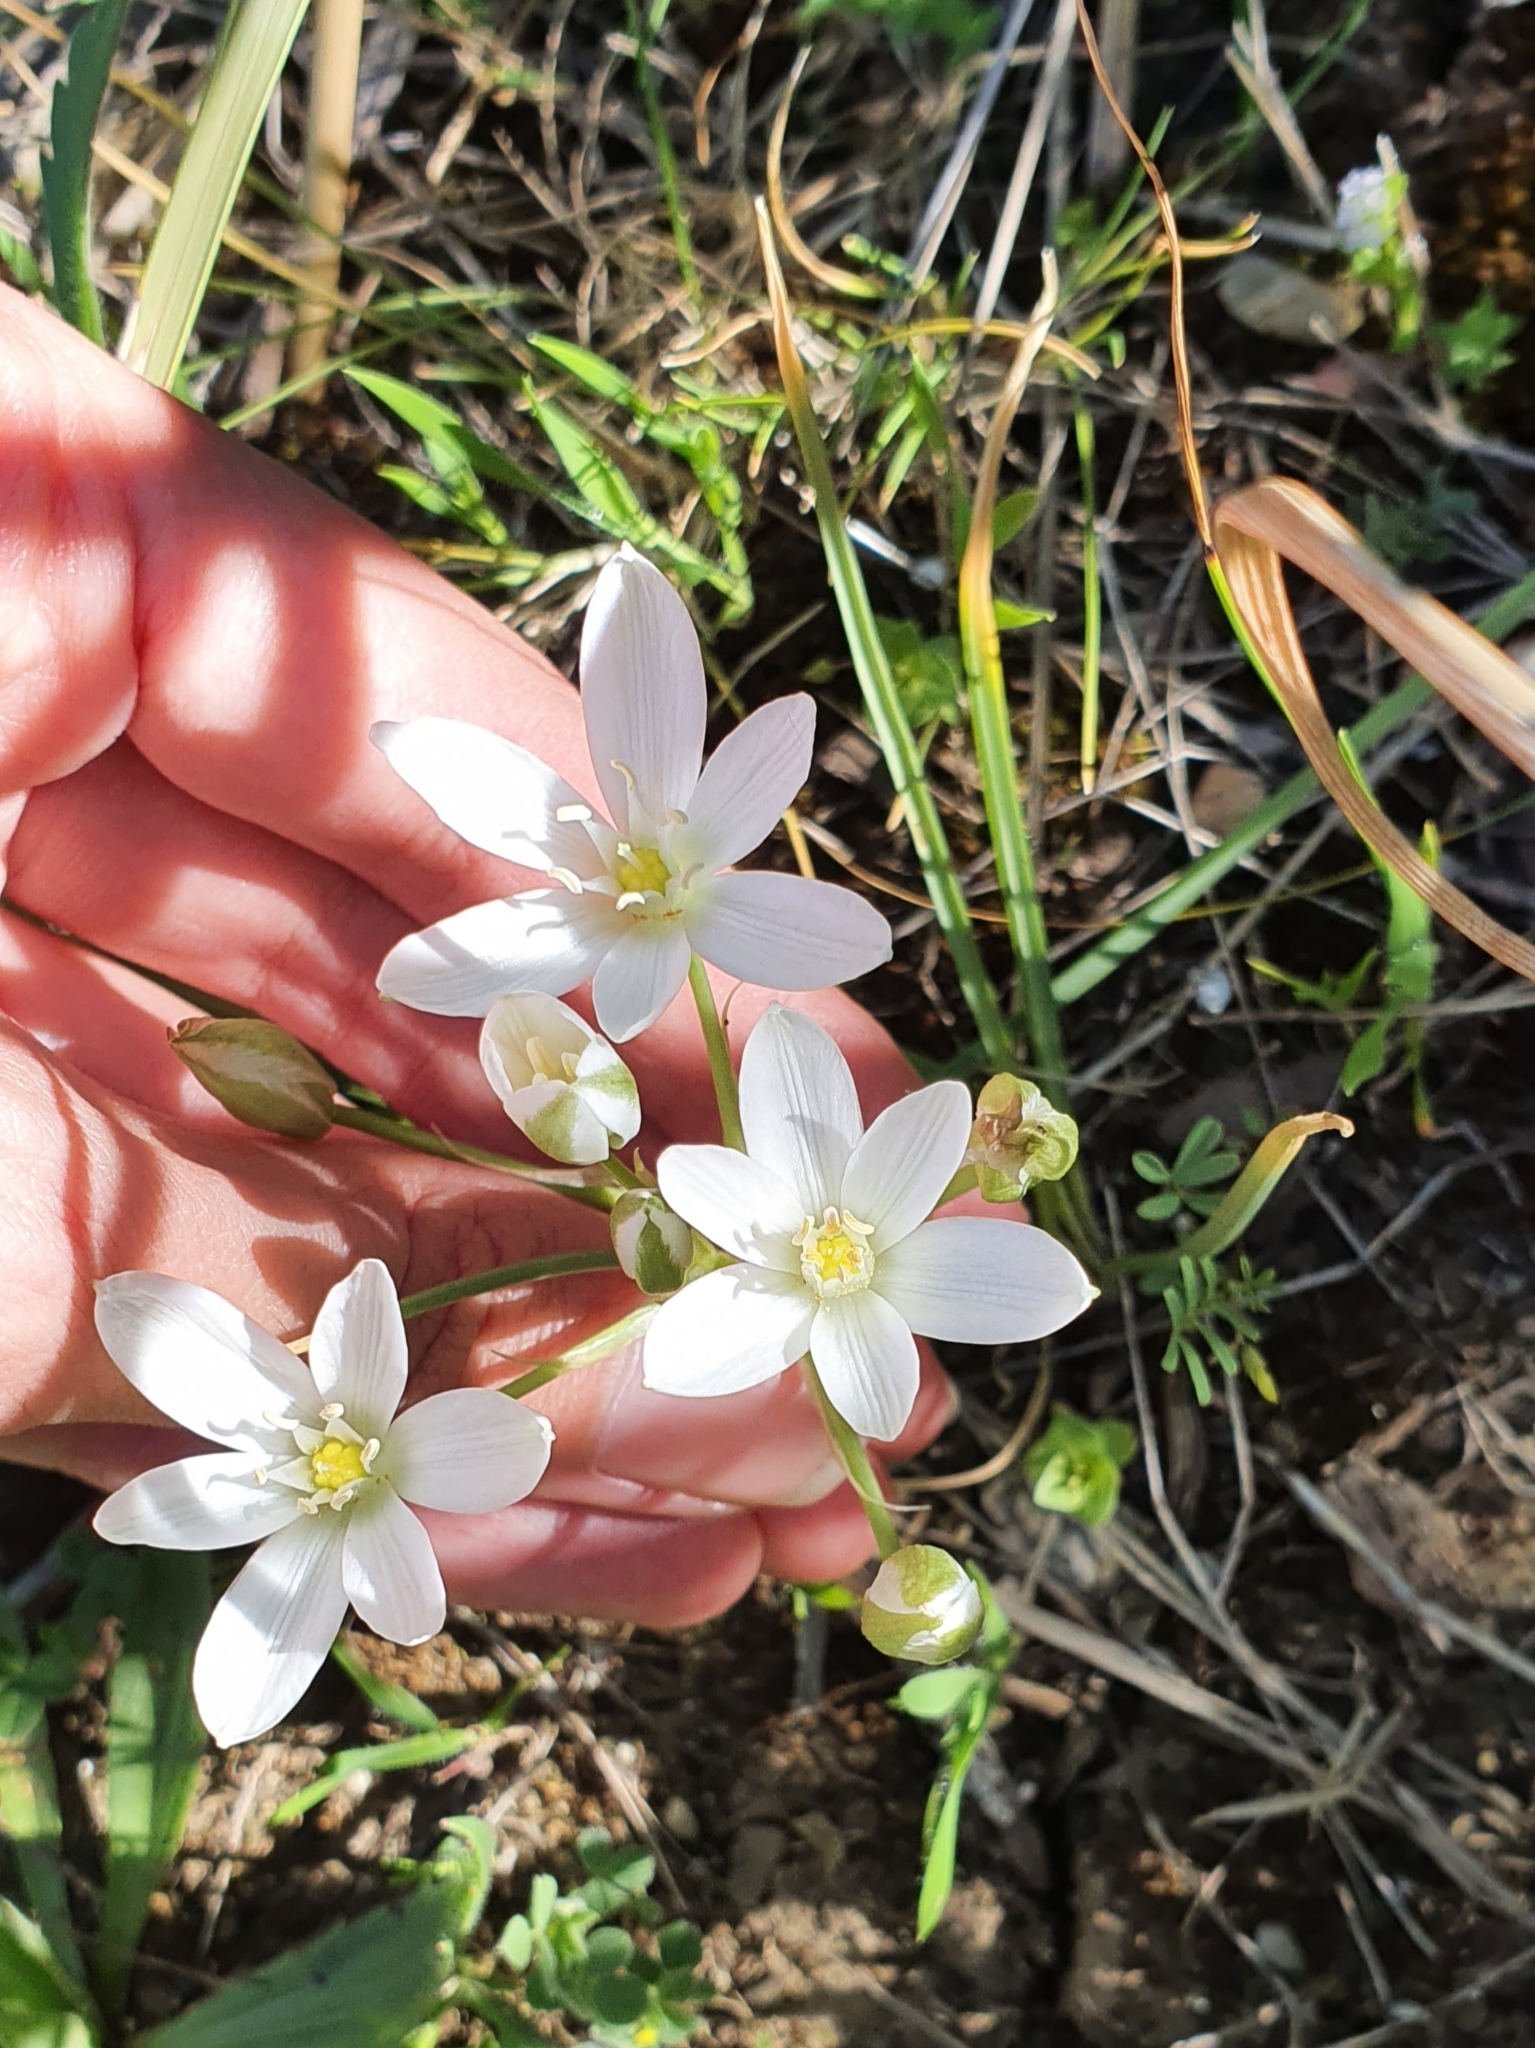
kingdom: Plantae
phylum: Tracheophyta
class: Liliopsida
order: Asparagales
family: Asparagaceae
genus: Ornithogalum
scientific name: Ornithogalum baeticum
